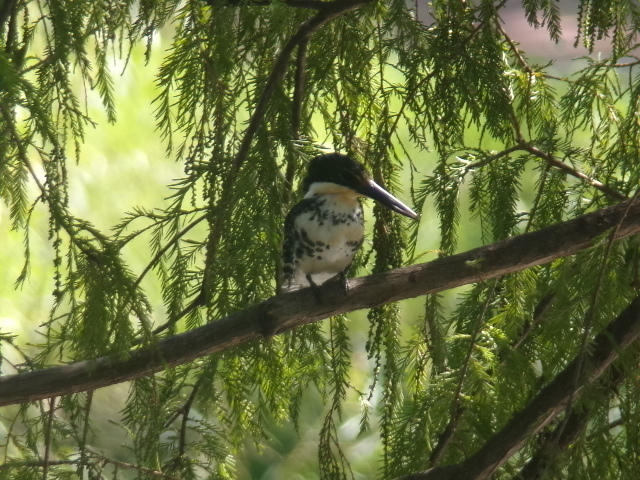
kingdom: Animalia
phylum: Chordata
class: Aves
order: Coraciiformes
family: Alcedinidae
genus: Chloroceryle
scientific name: Chloroceryle americana
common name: Green kingfisher
